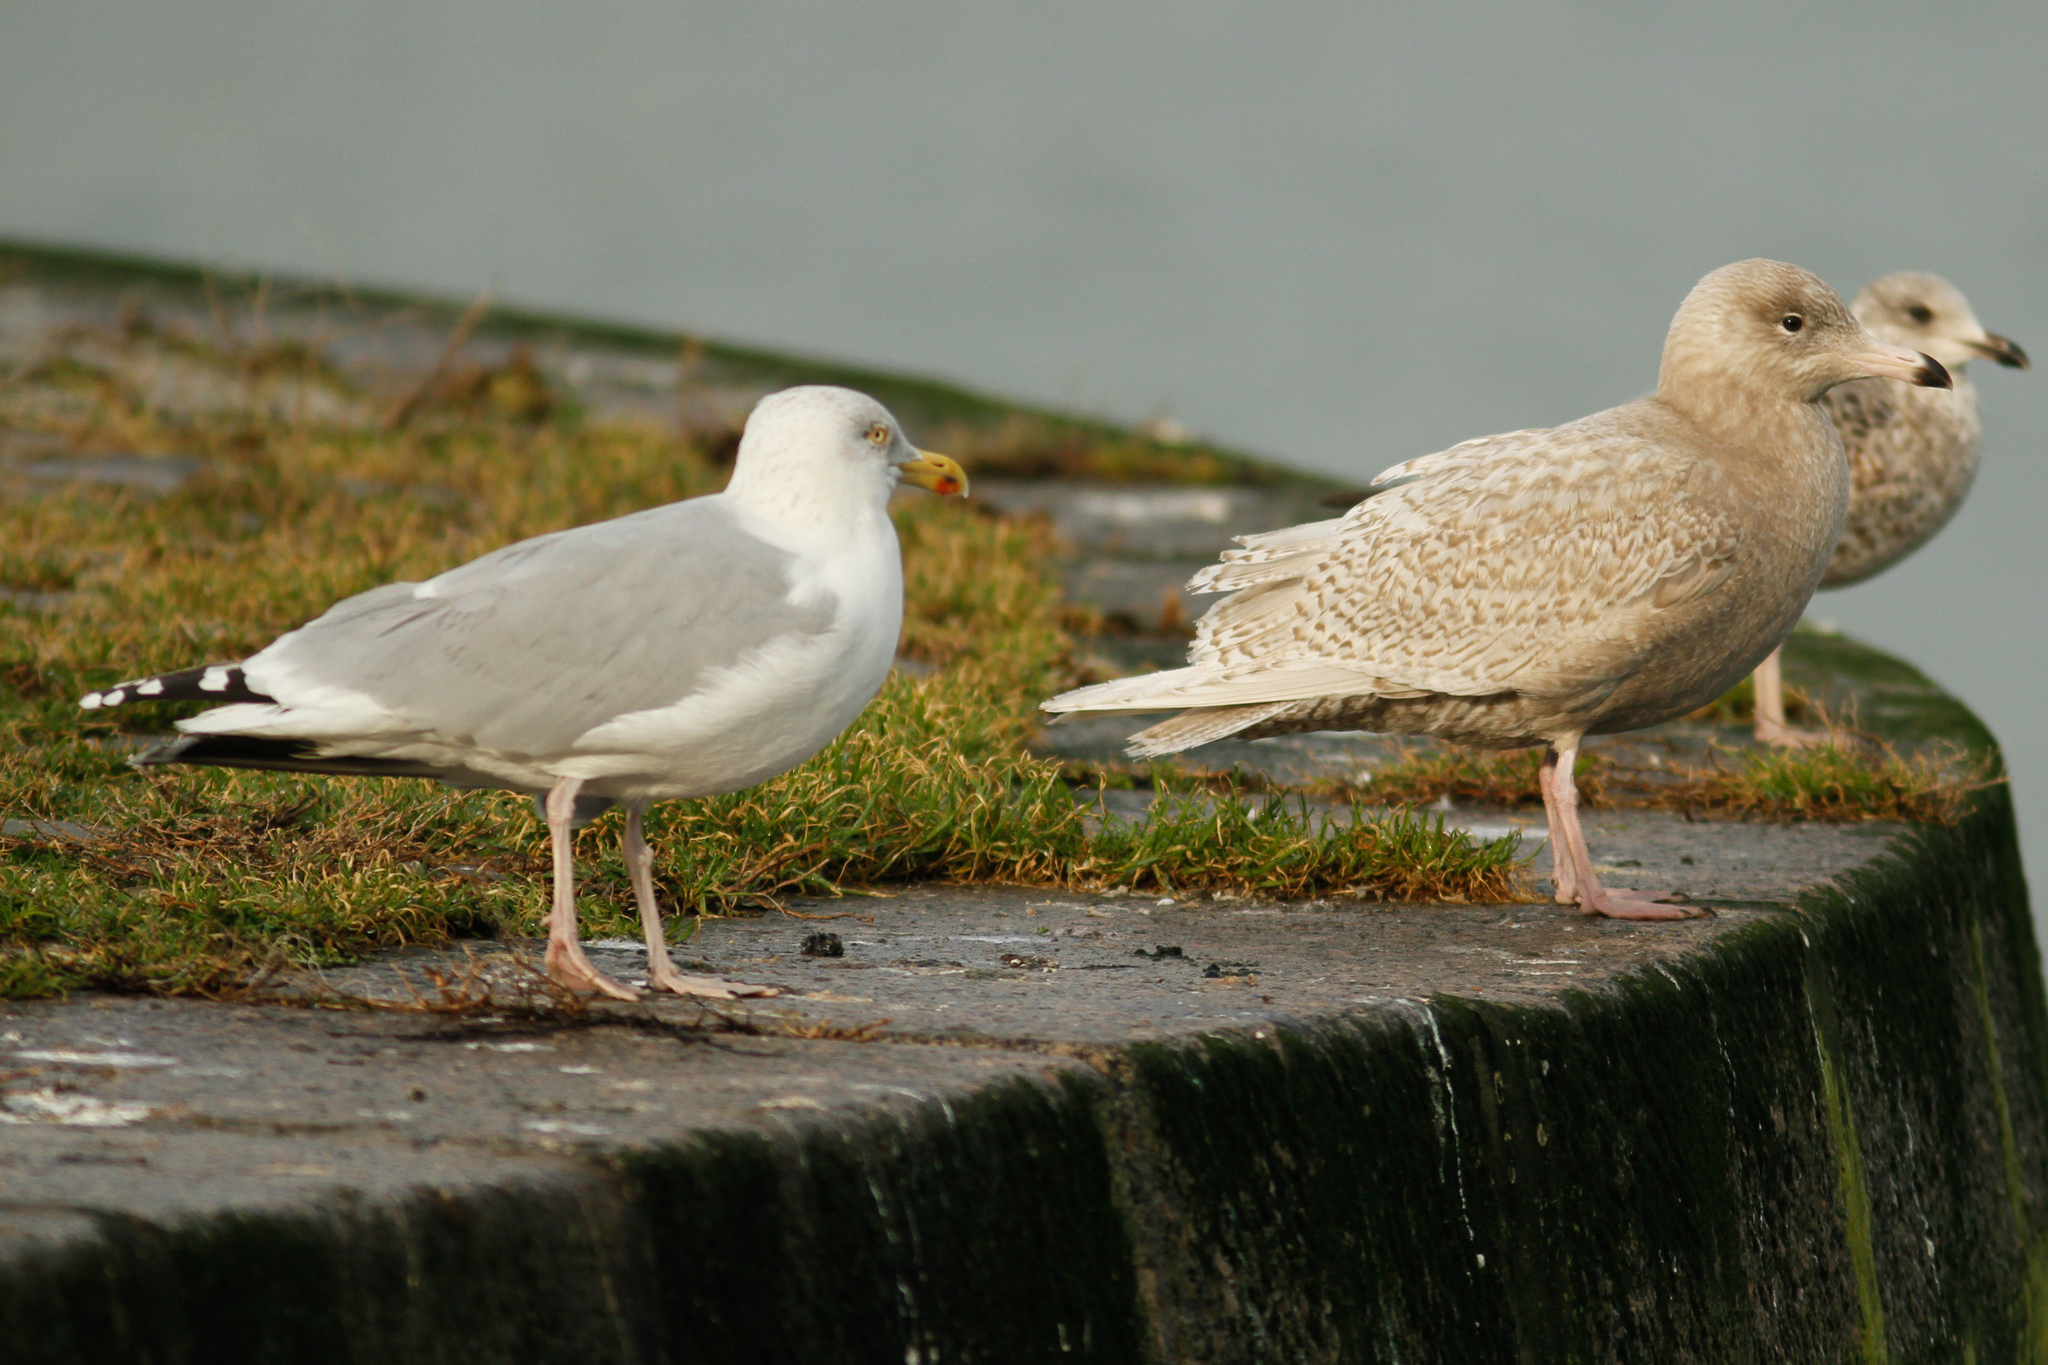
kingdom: Animalia
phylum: Chordata
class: Aves
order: Charadriiformes
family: Laridae
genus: Larus
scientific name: Larus hyperboreus
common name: Glaucous gull
